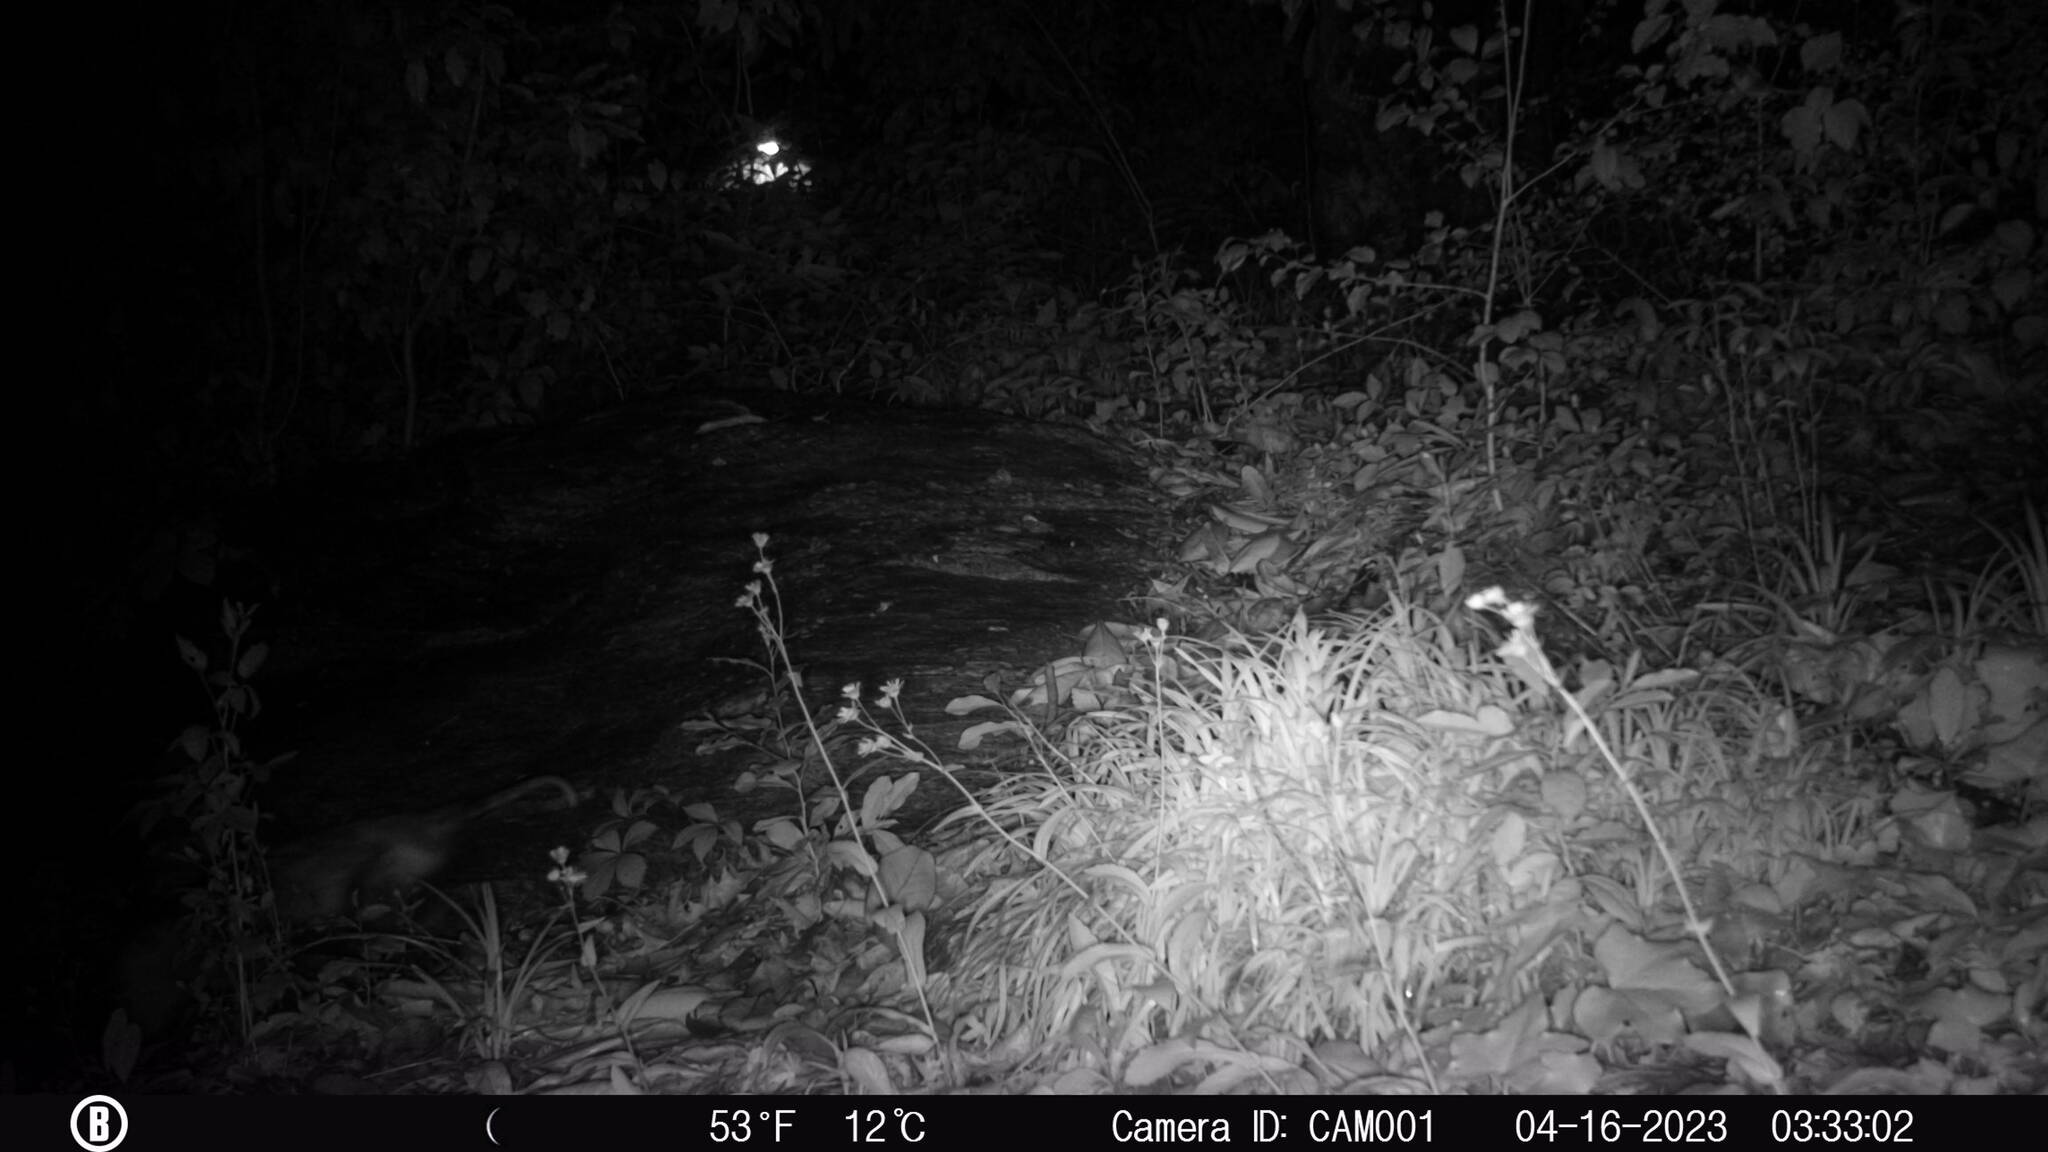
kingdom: Animalia
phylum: Chordata
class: Mammalia
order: Didelphimorphia
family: Didelphidae
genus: Didelphis
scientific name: Didelphis virginiana
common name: Virginia opossum
